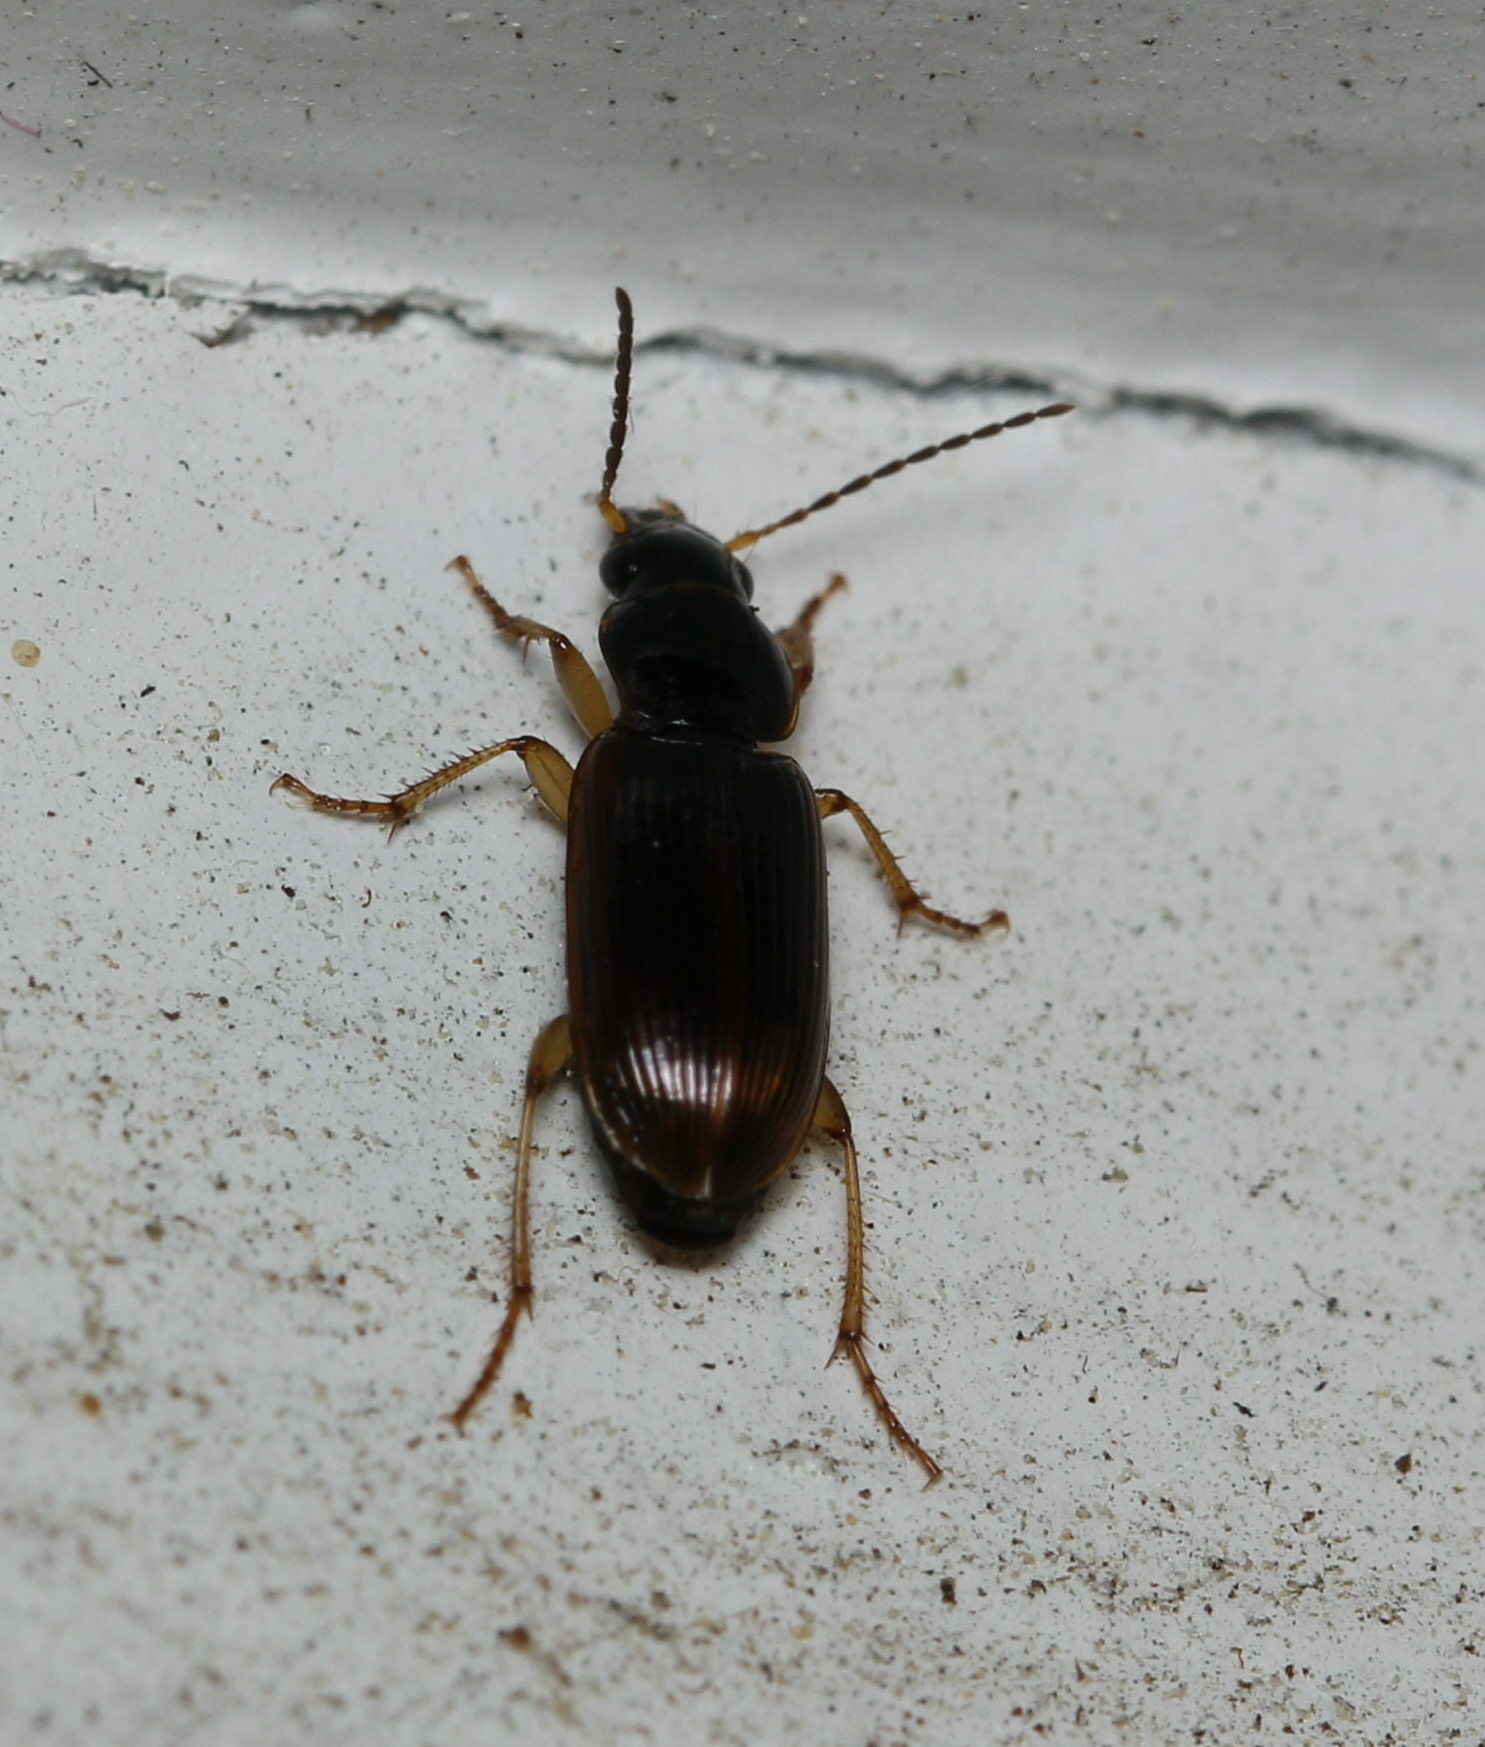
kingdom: Animalia
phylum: Arthropoda
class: Insecta
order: Coleoptera
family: Carabidae
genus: Stenolophus
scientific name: Stenolophus ochropezus
